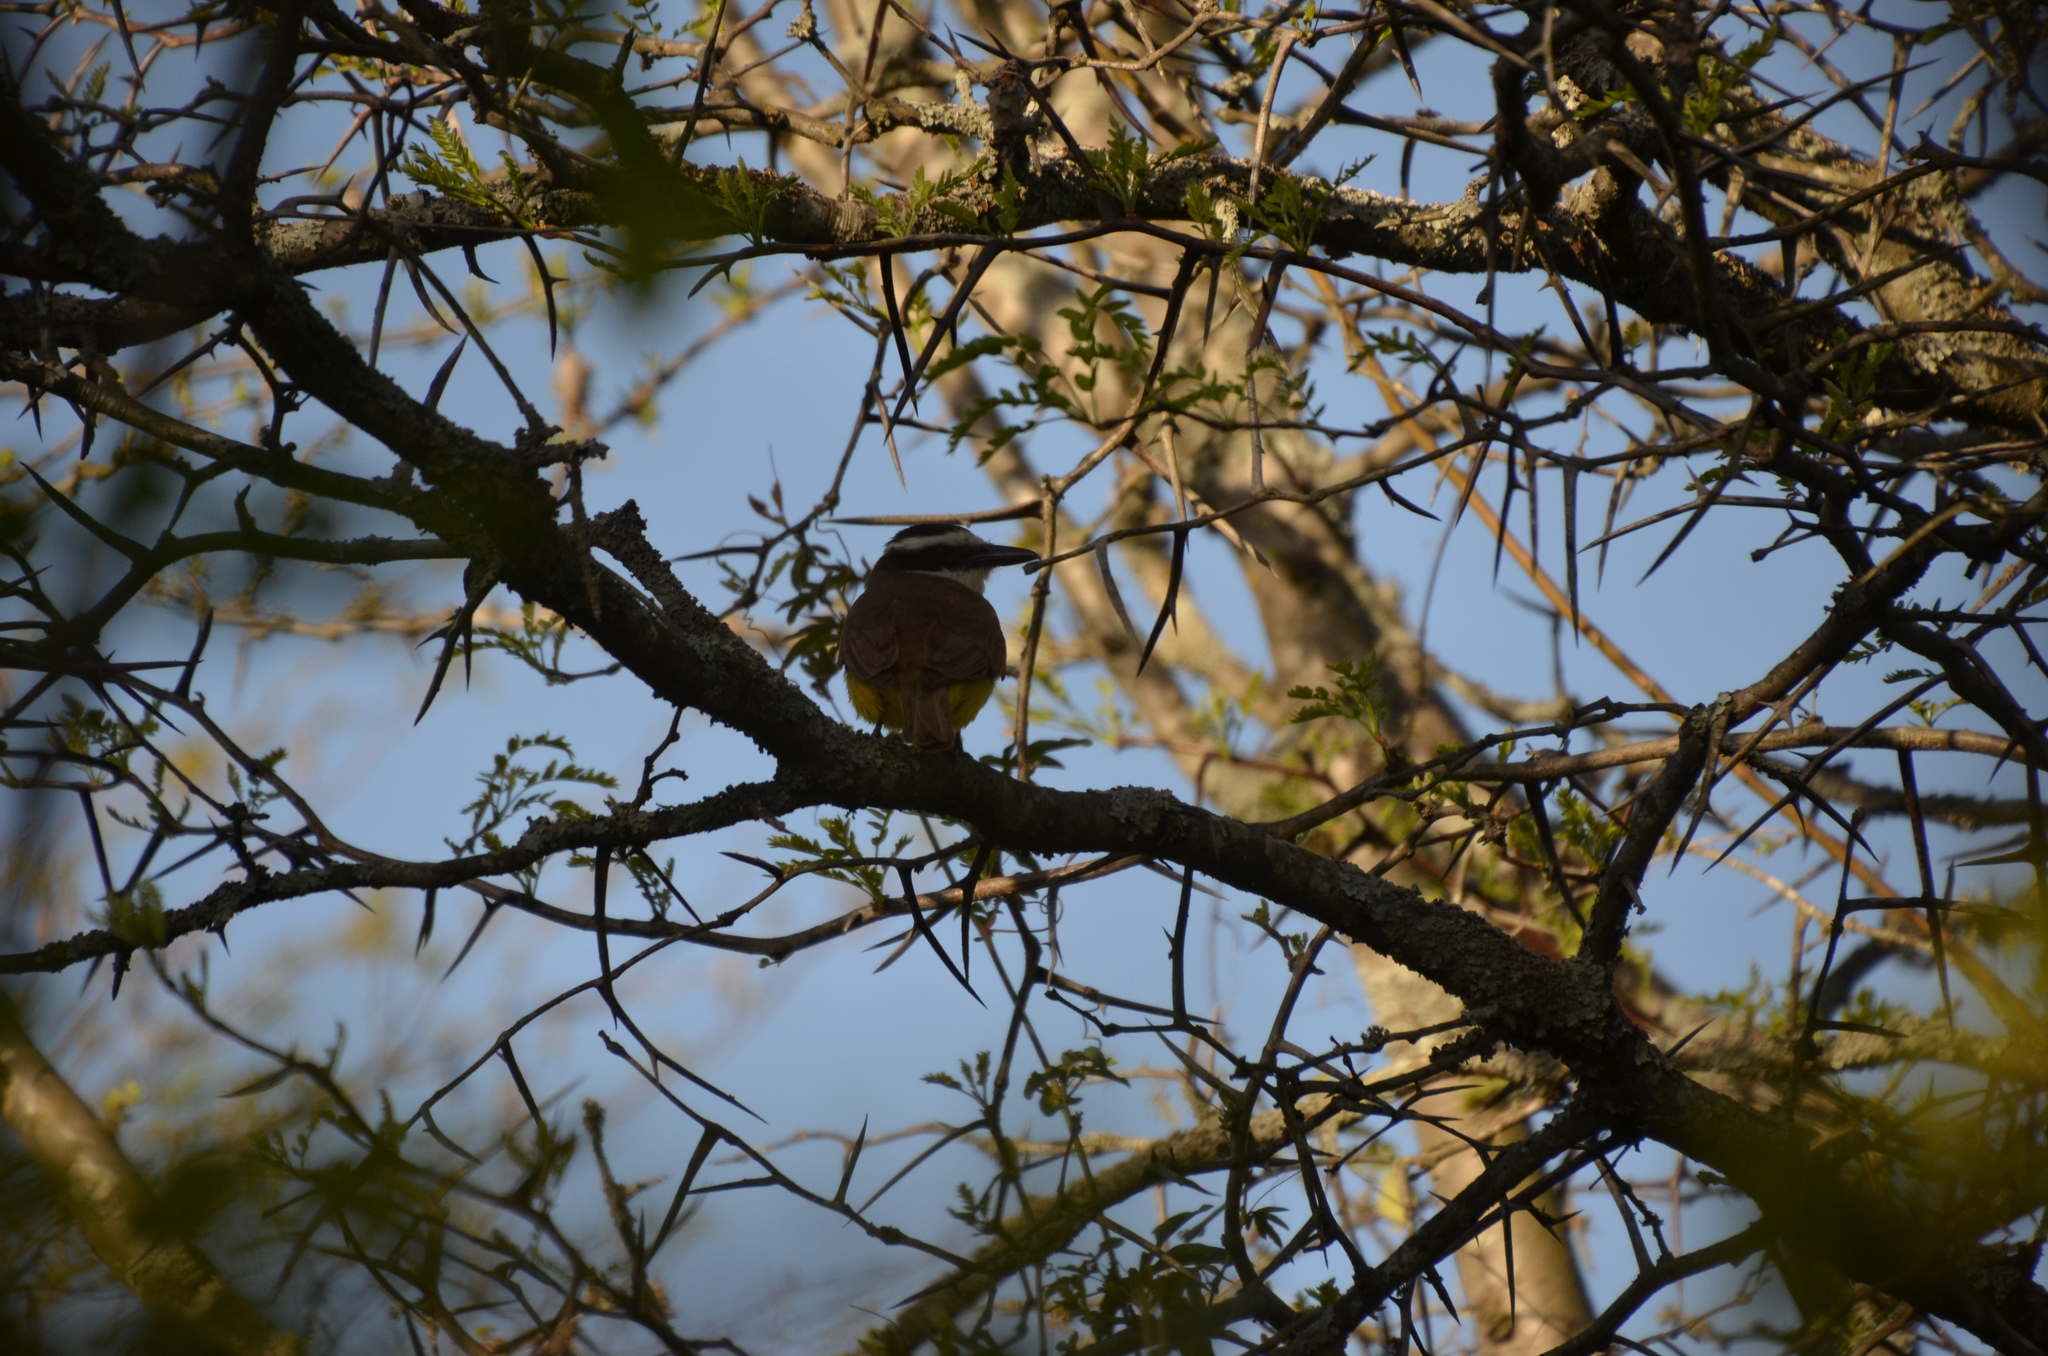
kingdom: Animalia
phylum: Chordata
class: Aves
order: Passeriformes
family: Tyrannidae
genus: Pitangus
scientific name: Pitangus sulphuratus
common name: Great kiskadee
